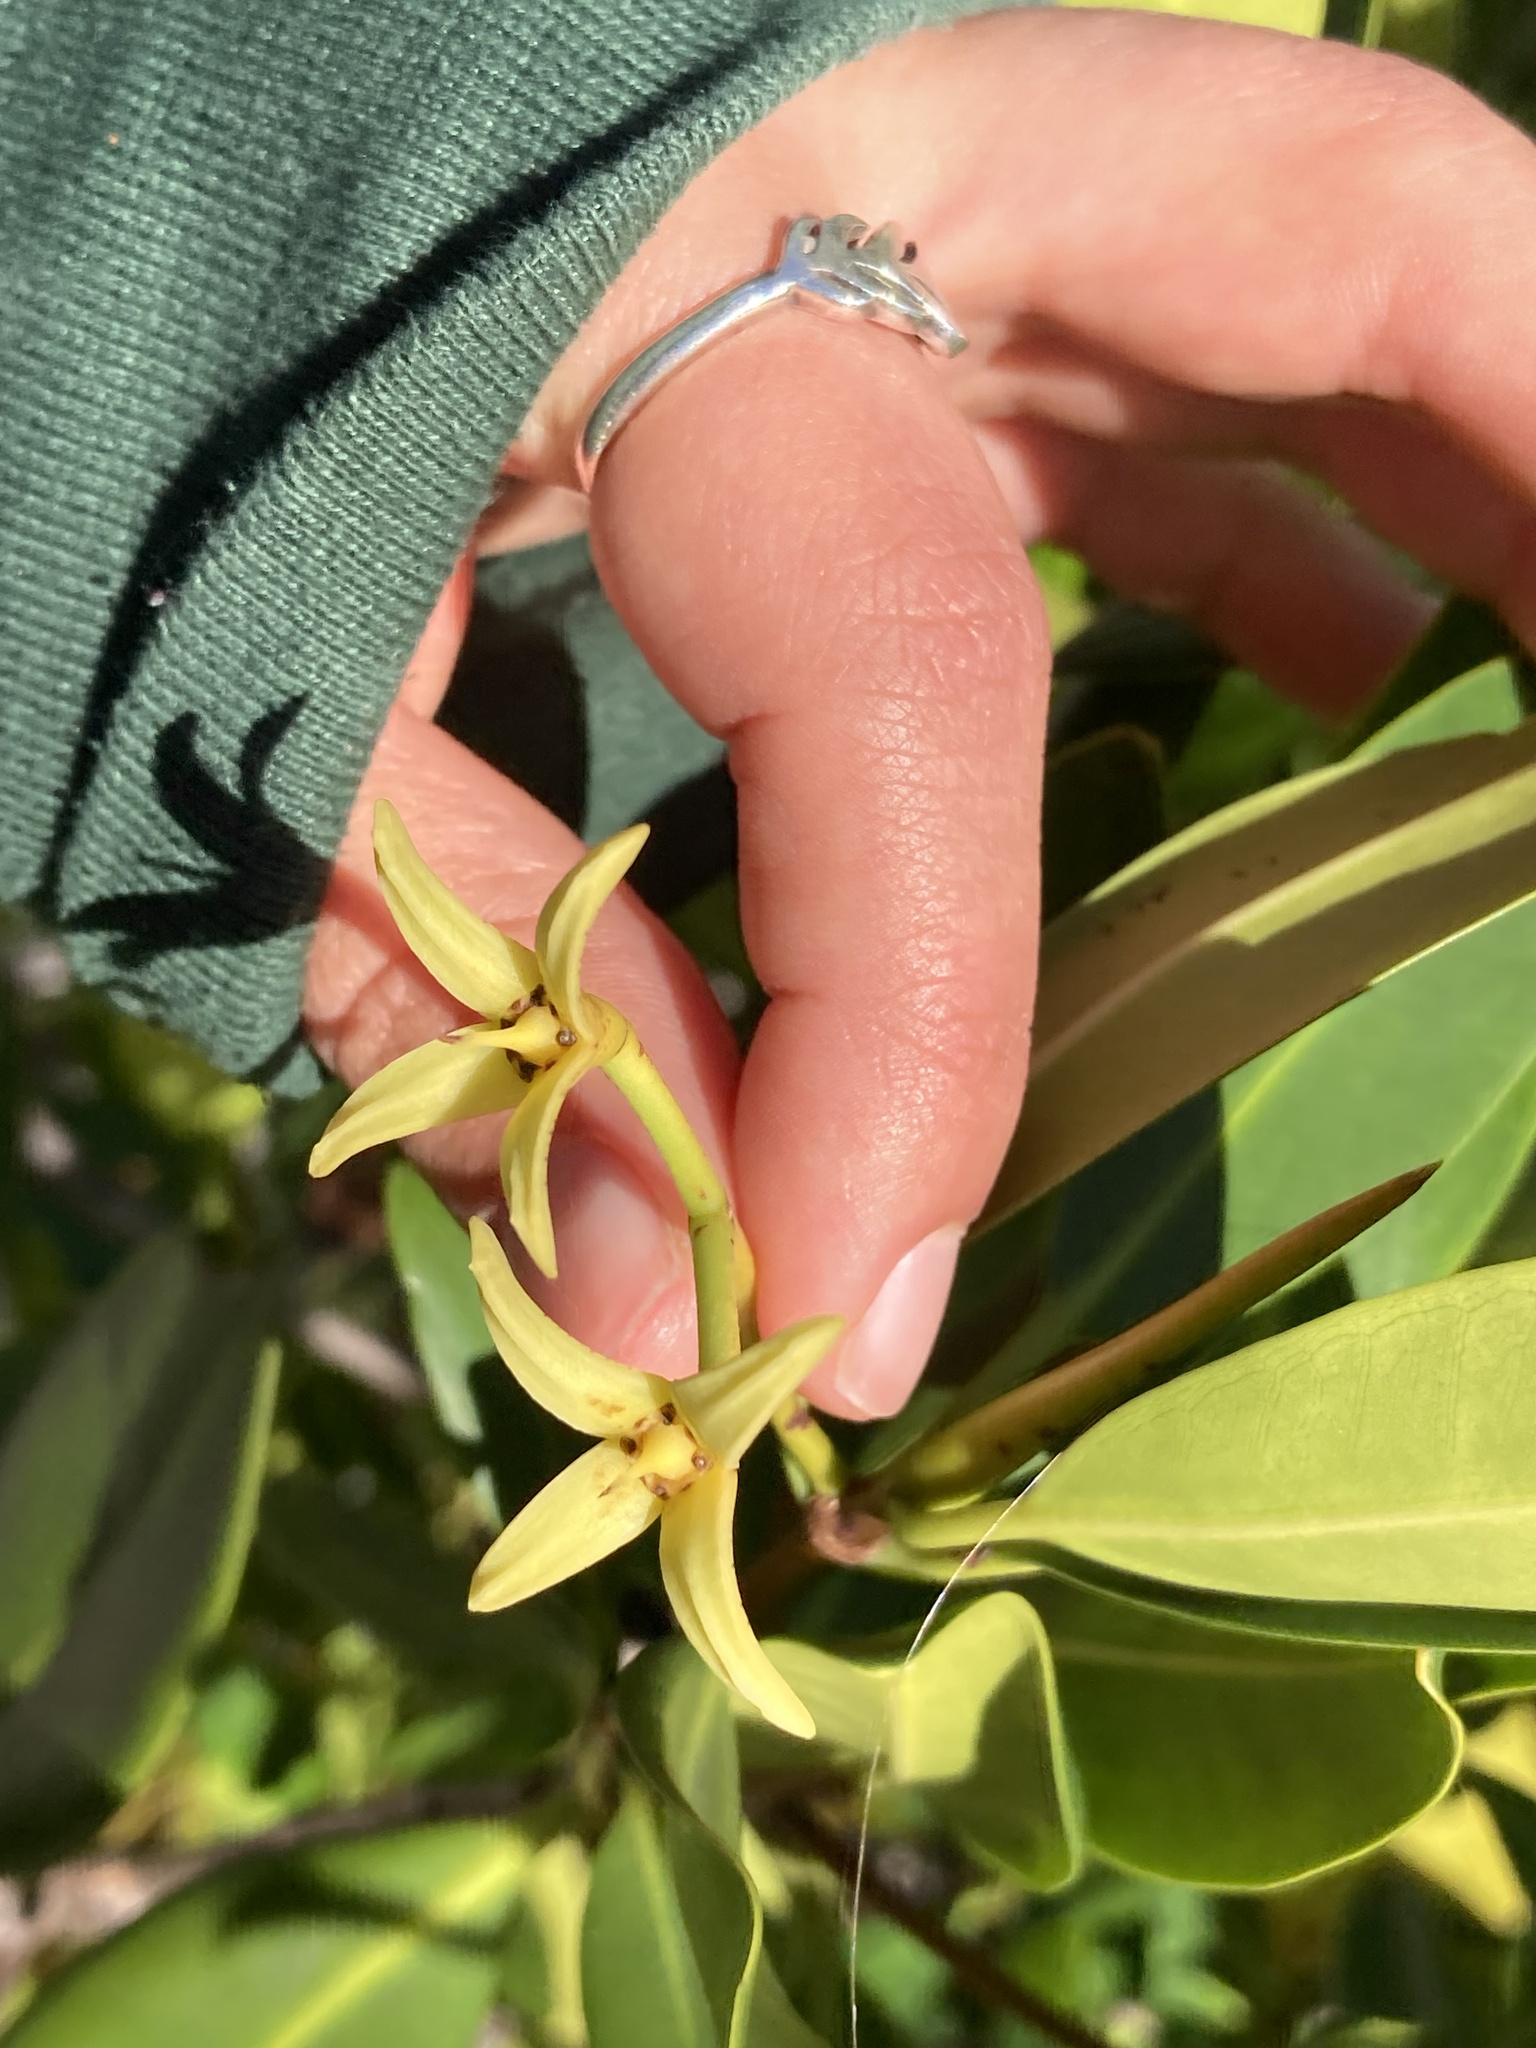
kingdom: Plantae
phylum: Tracheophyta
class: Magnoliopsida
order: Malpighiales
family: Rhizophoraceae
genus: Rhizophora
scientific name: Rhizophora mangle
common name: Red mangrove
